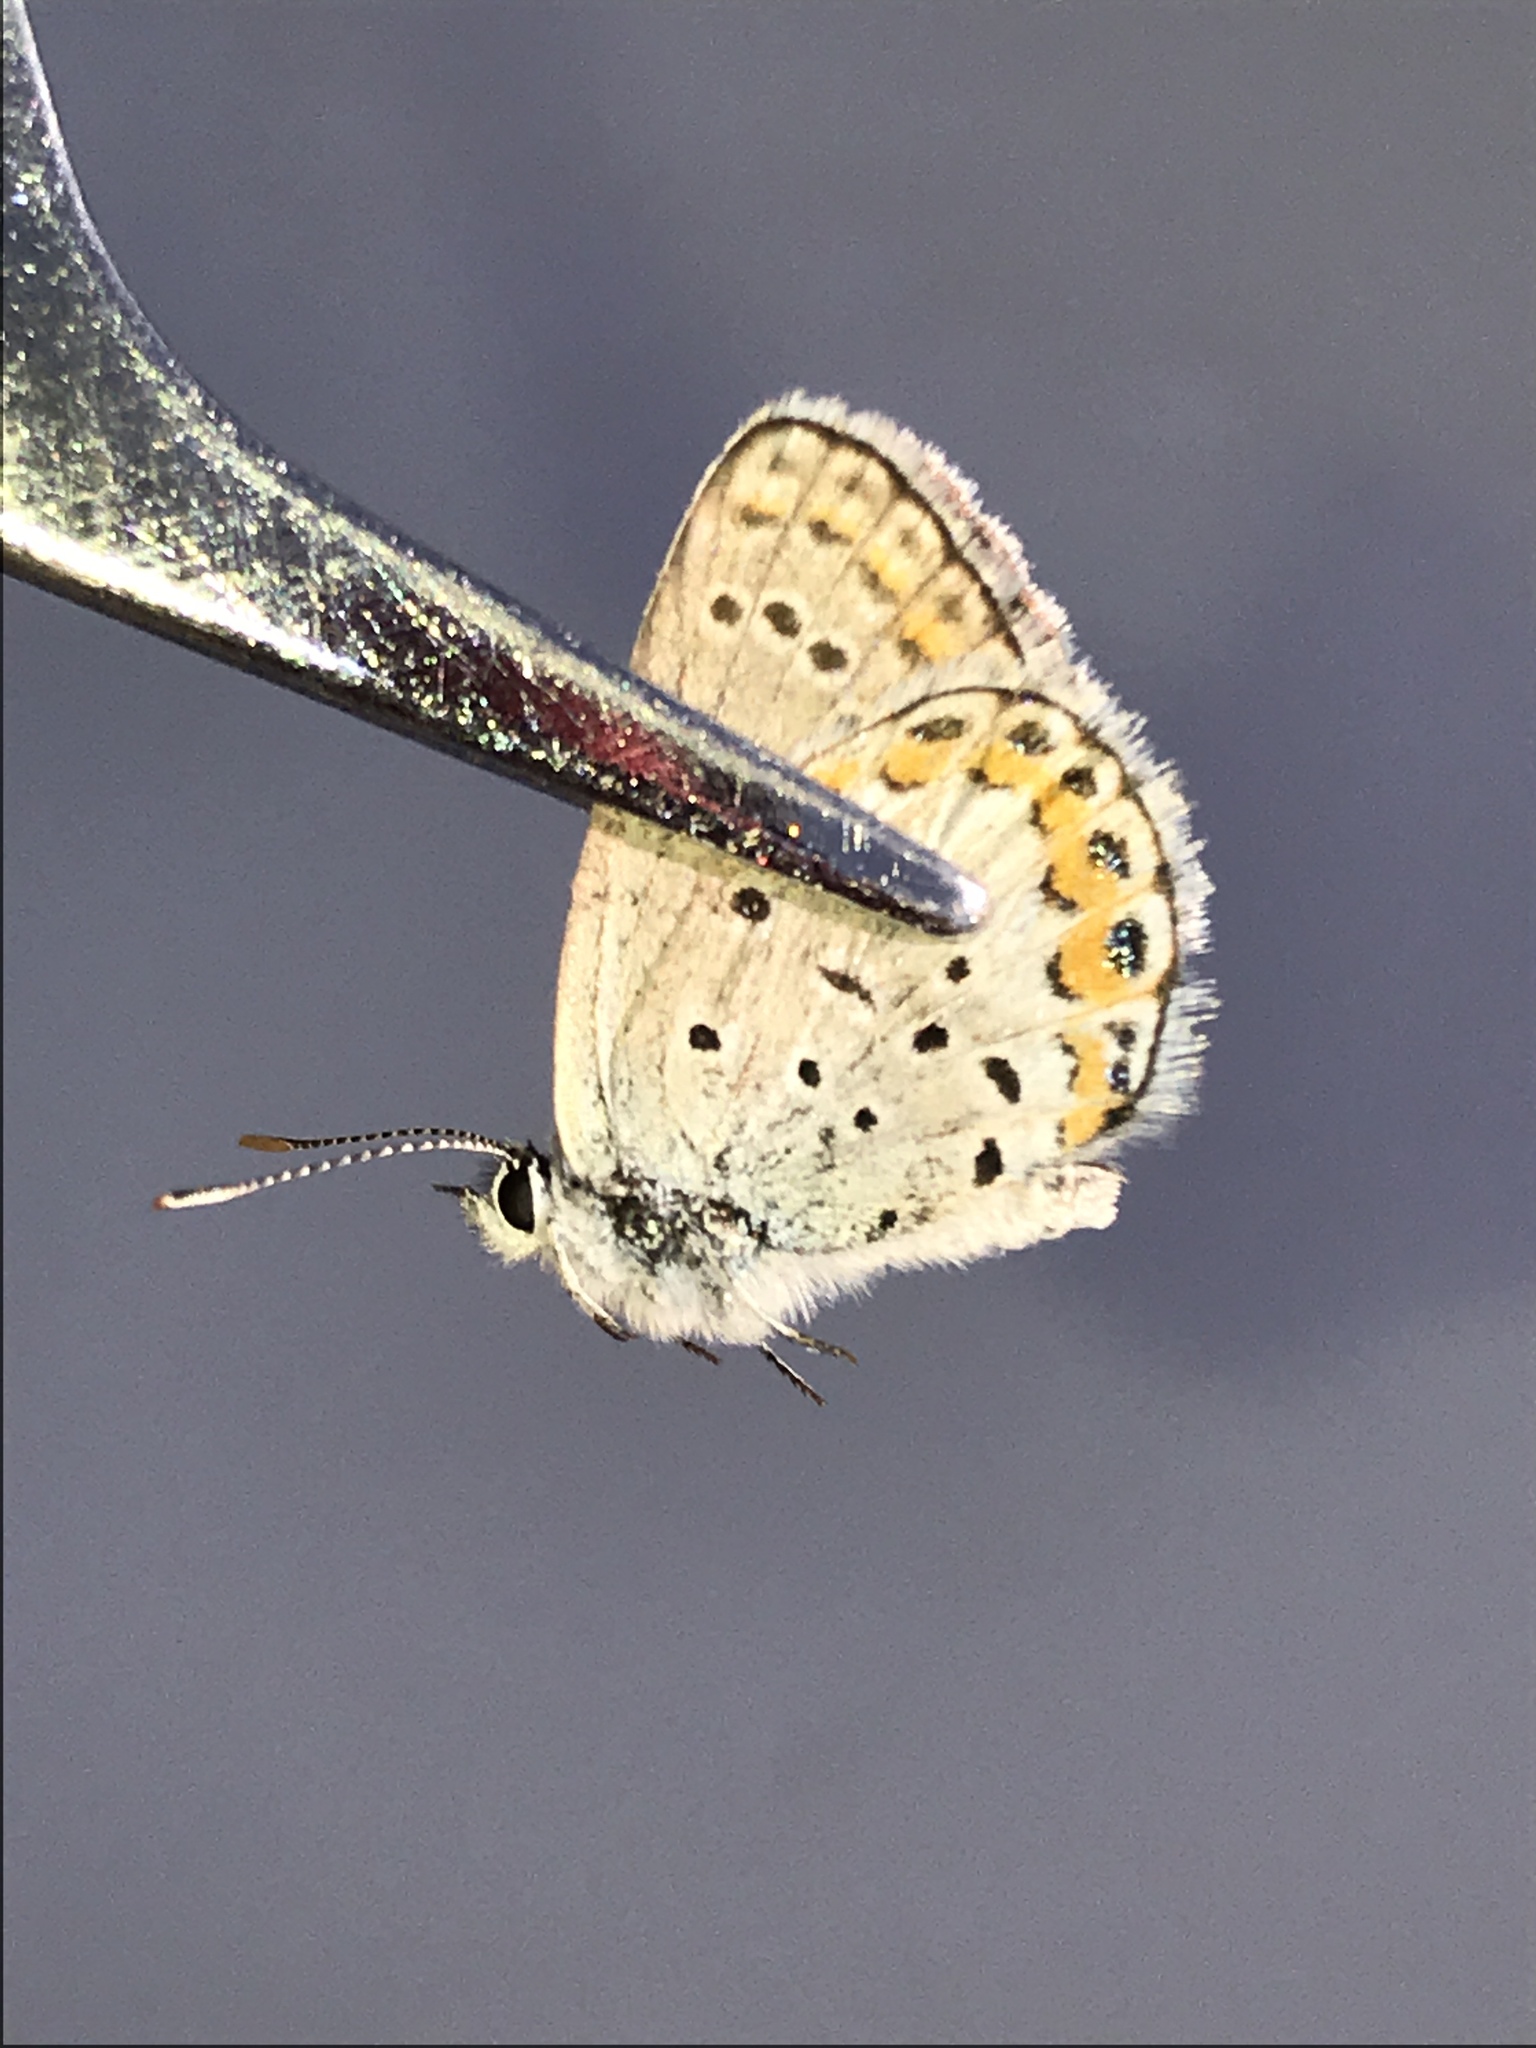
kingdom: Animalia
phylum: Arthropoda
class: Insecta
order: Lepidoptera
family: Lycaenidae
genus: Lycaeides
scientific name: Lycaeides melissa
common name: Melissa blue
